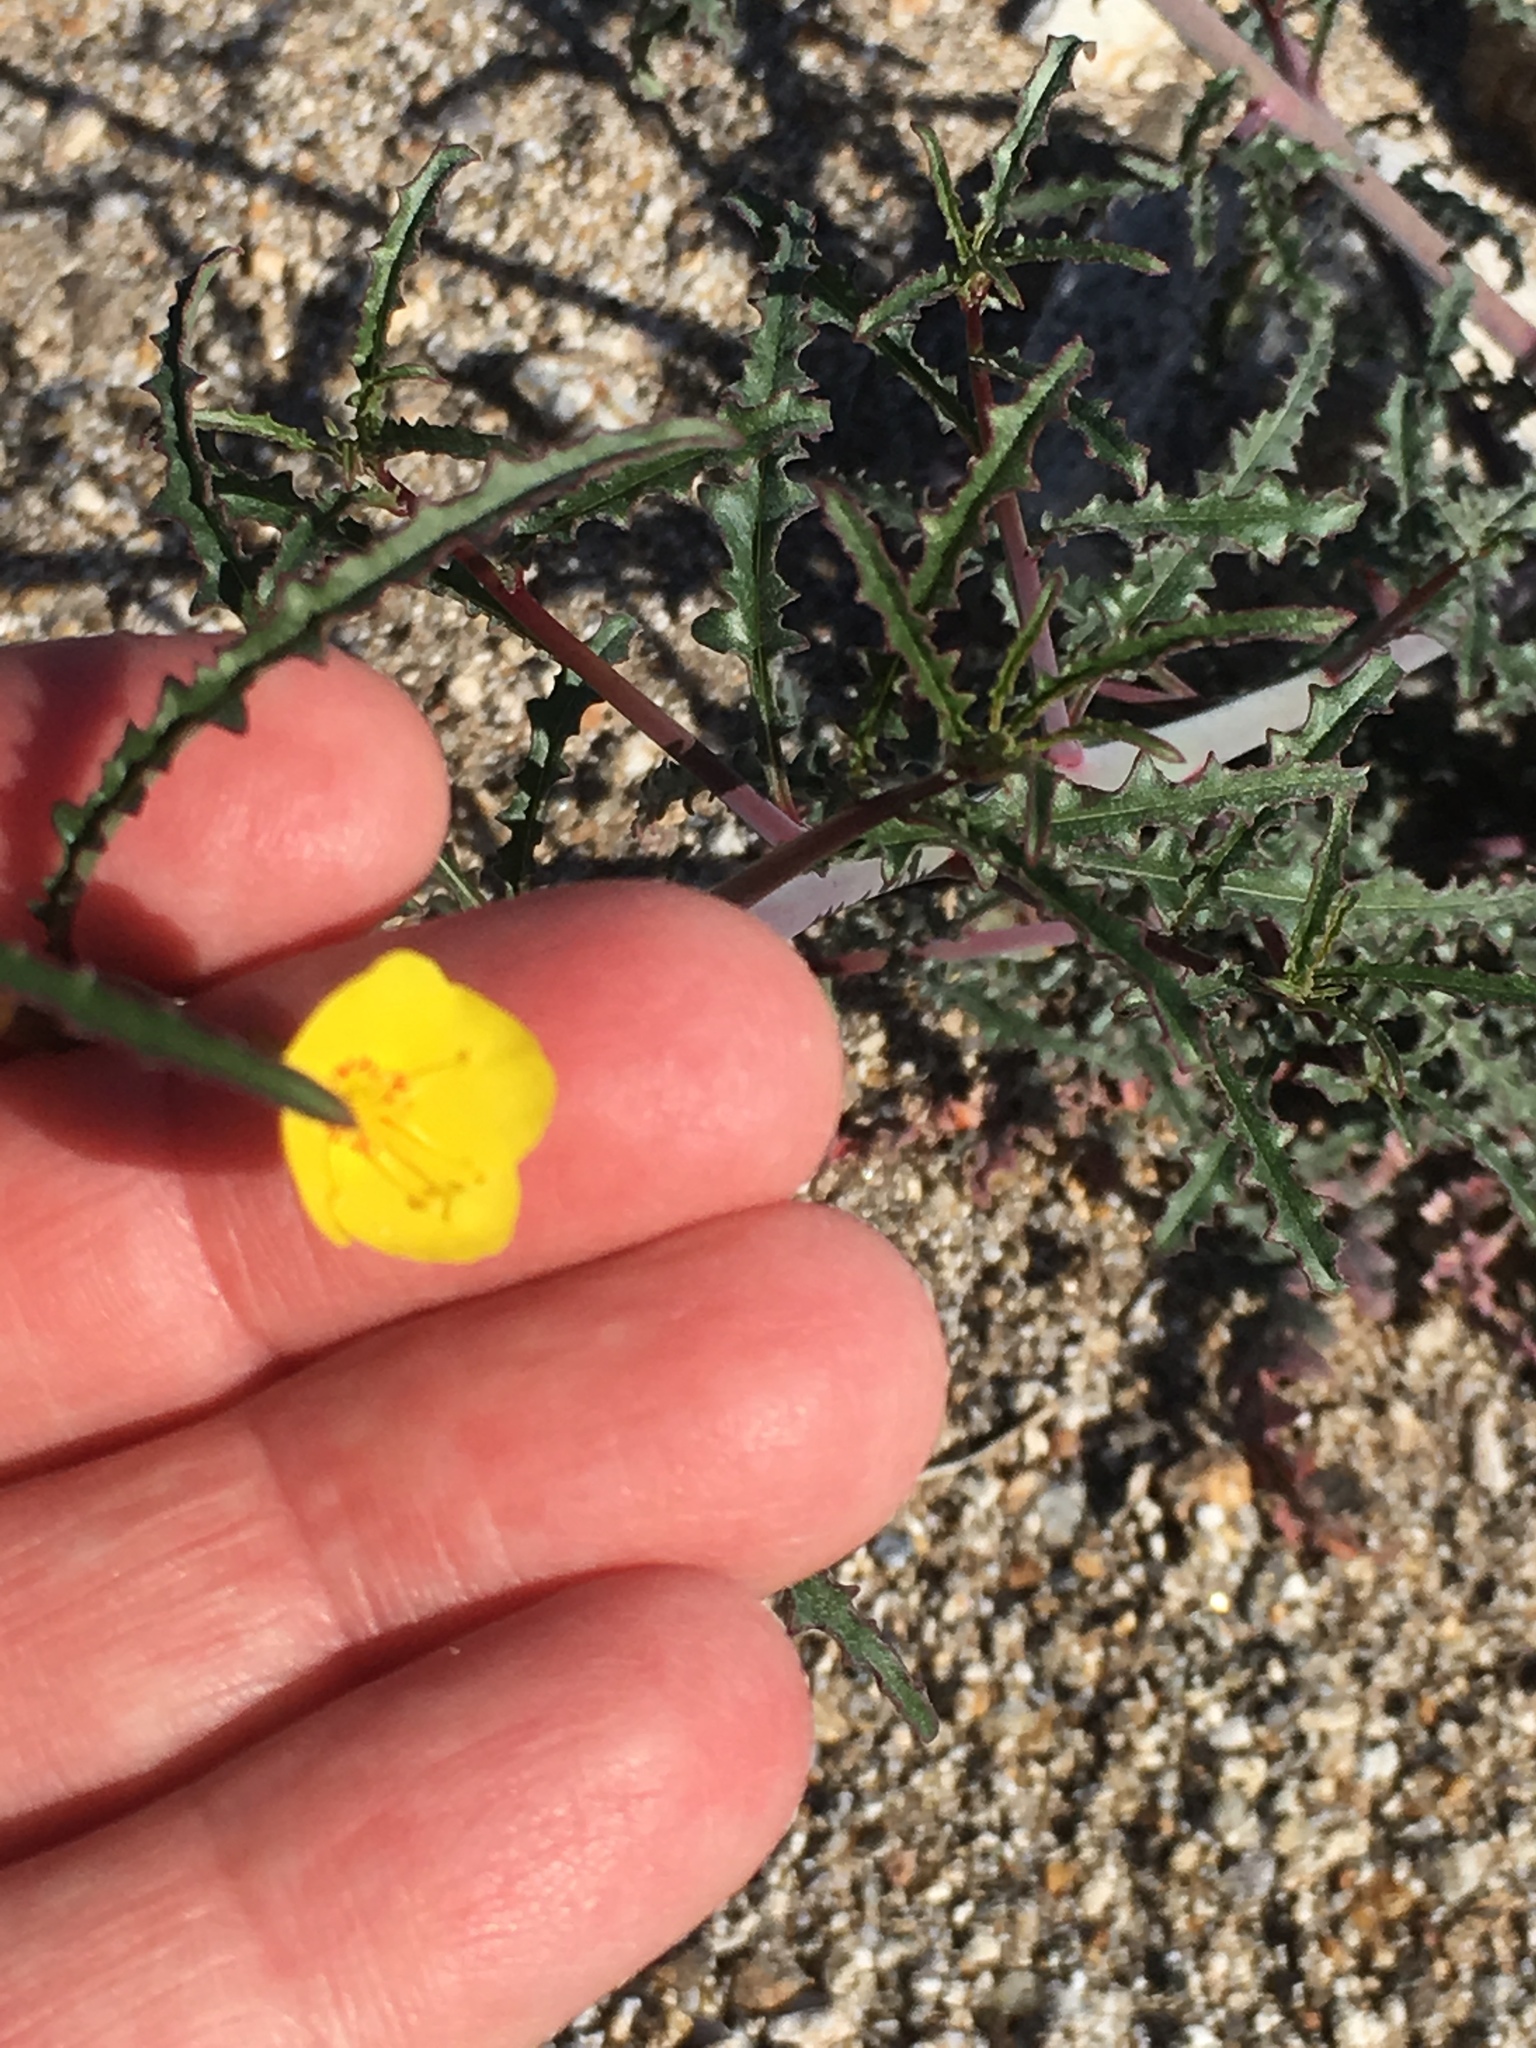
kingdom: Plantae
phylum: Tracheophyta
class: Magnoliopsida
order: Myrtales
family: Onagraceae
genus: Eulobus
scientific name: Eulobus californicus
